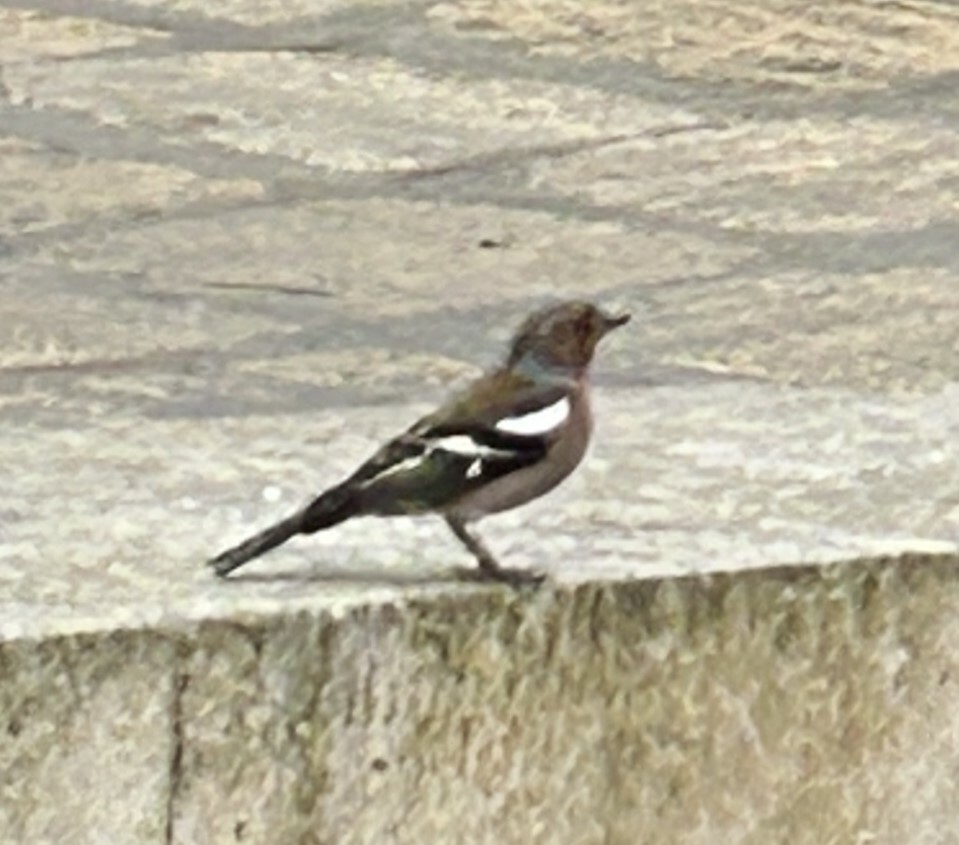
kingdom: Animalia
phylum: Chordata
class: Aves
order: Passeriformes
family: Fringillidae
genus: Fringilla
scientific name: Fringilla coelebs
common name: Common chaffinch
